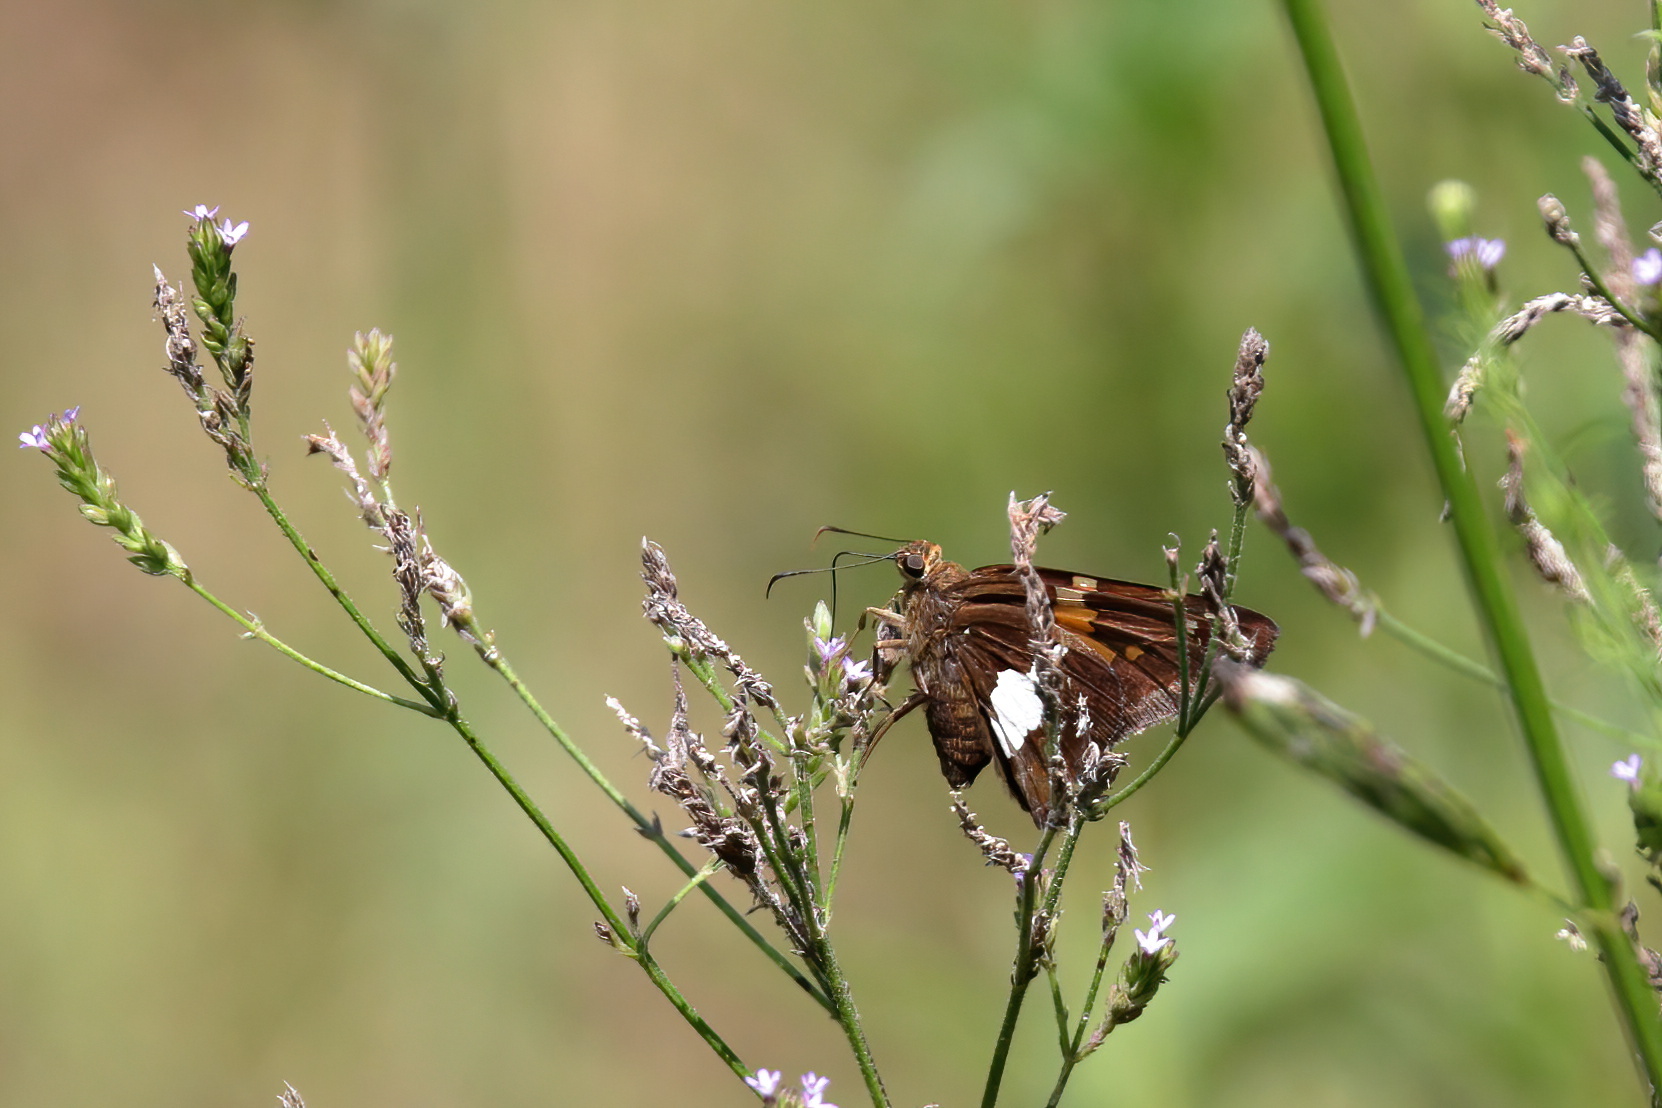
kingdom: Animalia
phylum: Arthropoda
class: Insecta
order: Lepidoptera
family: Hesperiidae
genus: Epargyreus
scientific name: Epargyreus clarus
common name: Silver-spotted skipper
